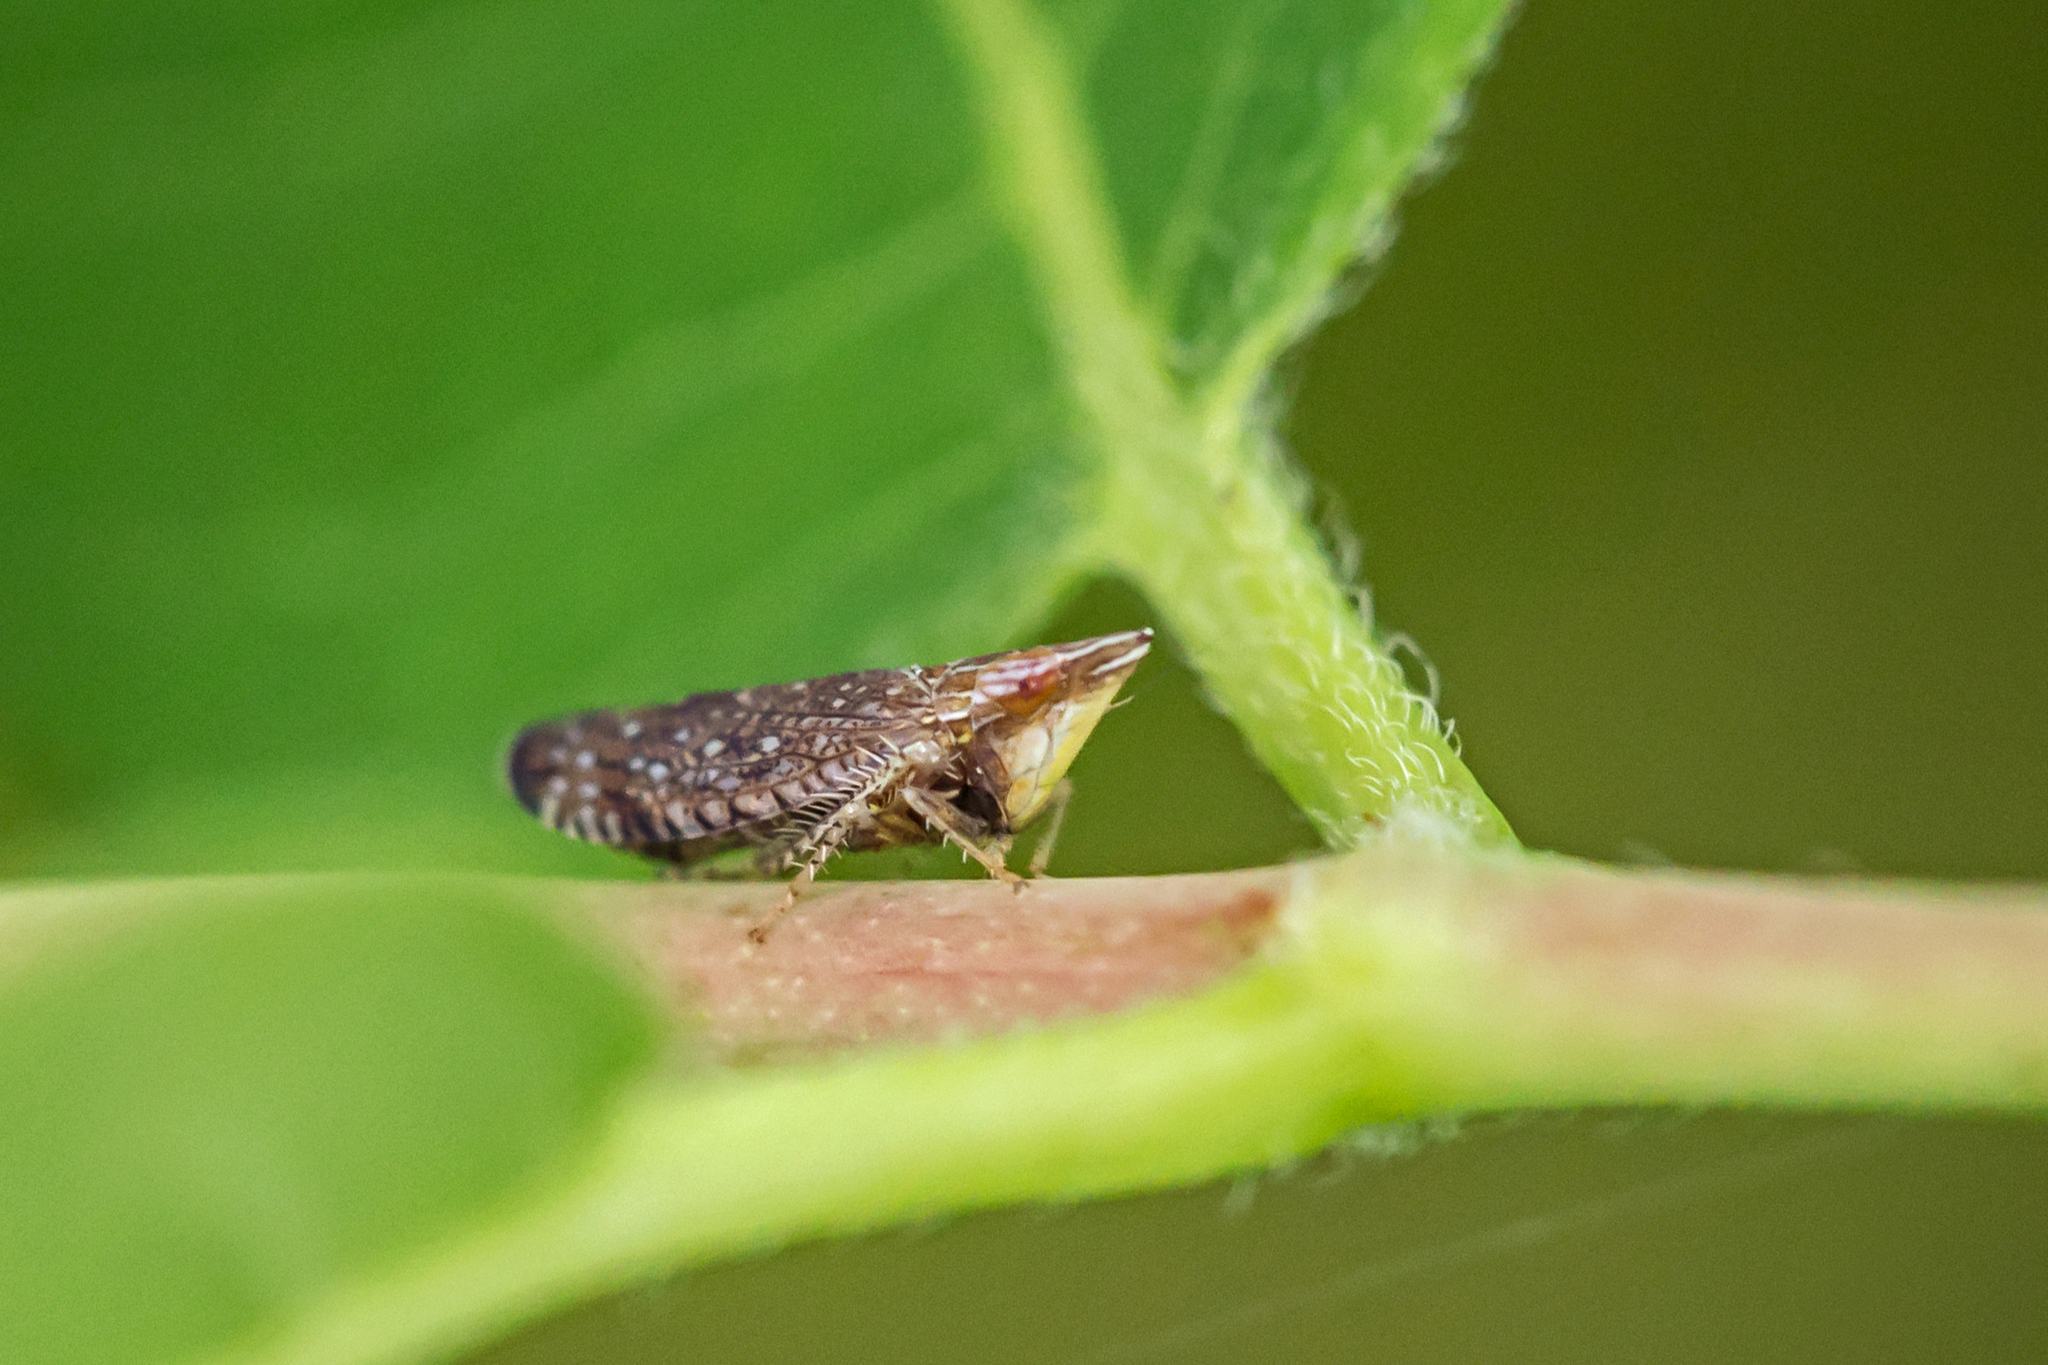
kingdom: Animalia
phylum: Arthropoda
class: Insecta
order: Hemiptera
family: Cicadellidae
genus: Scaphytopius
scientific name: Scaphytopius acutus
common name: The sharp-nosed leafhopper
